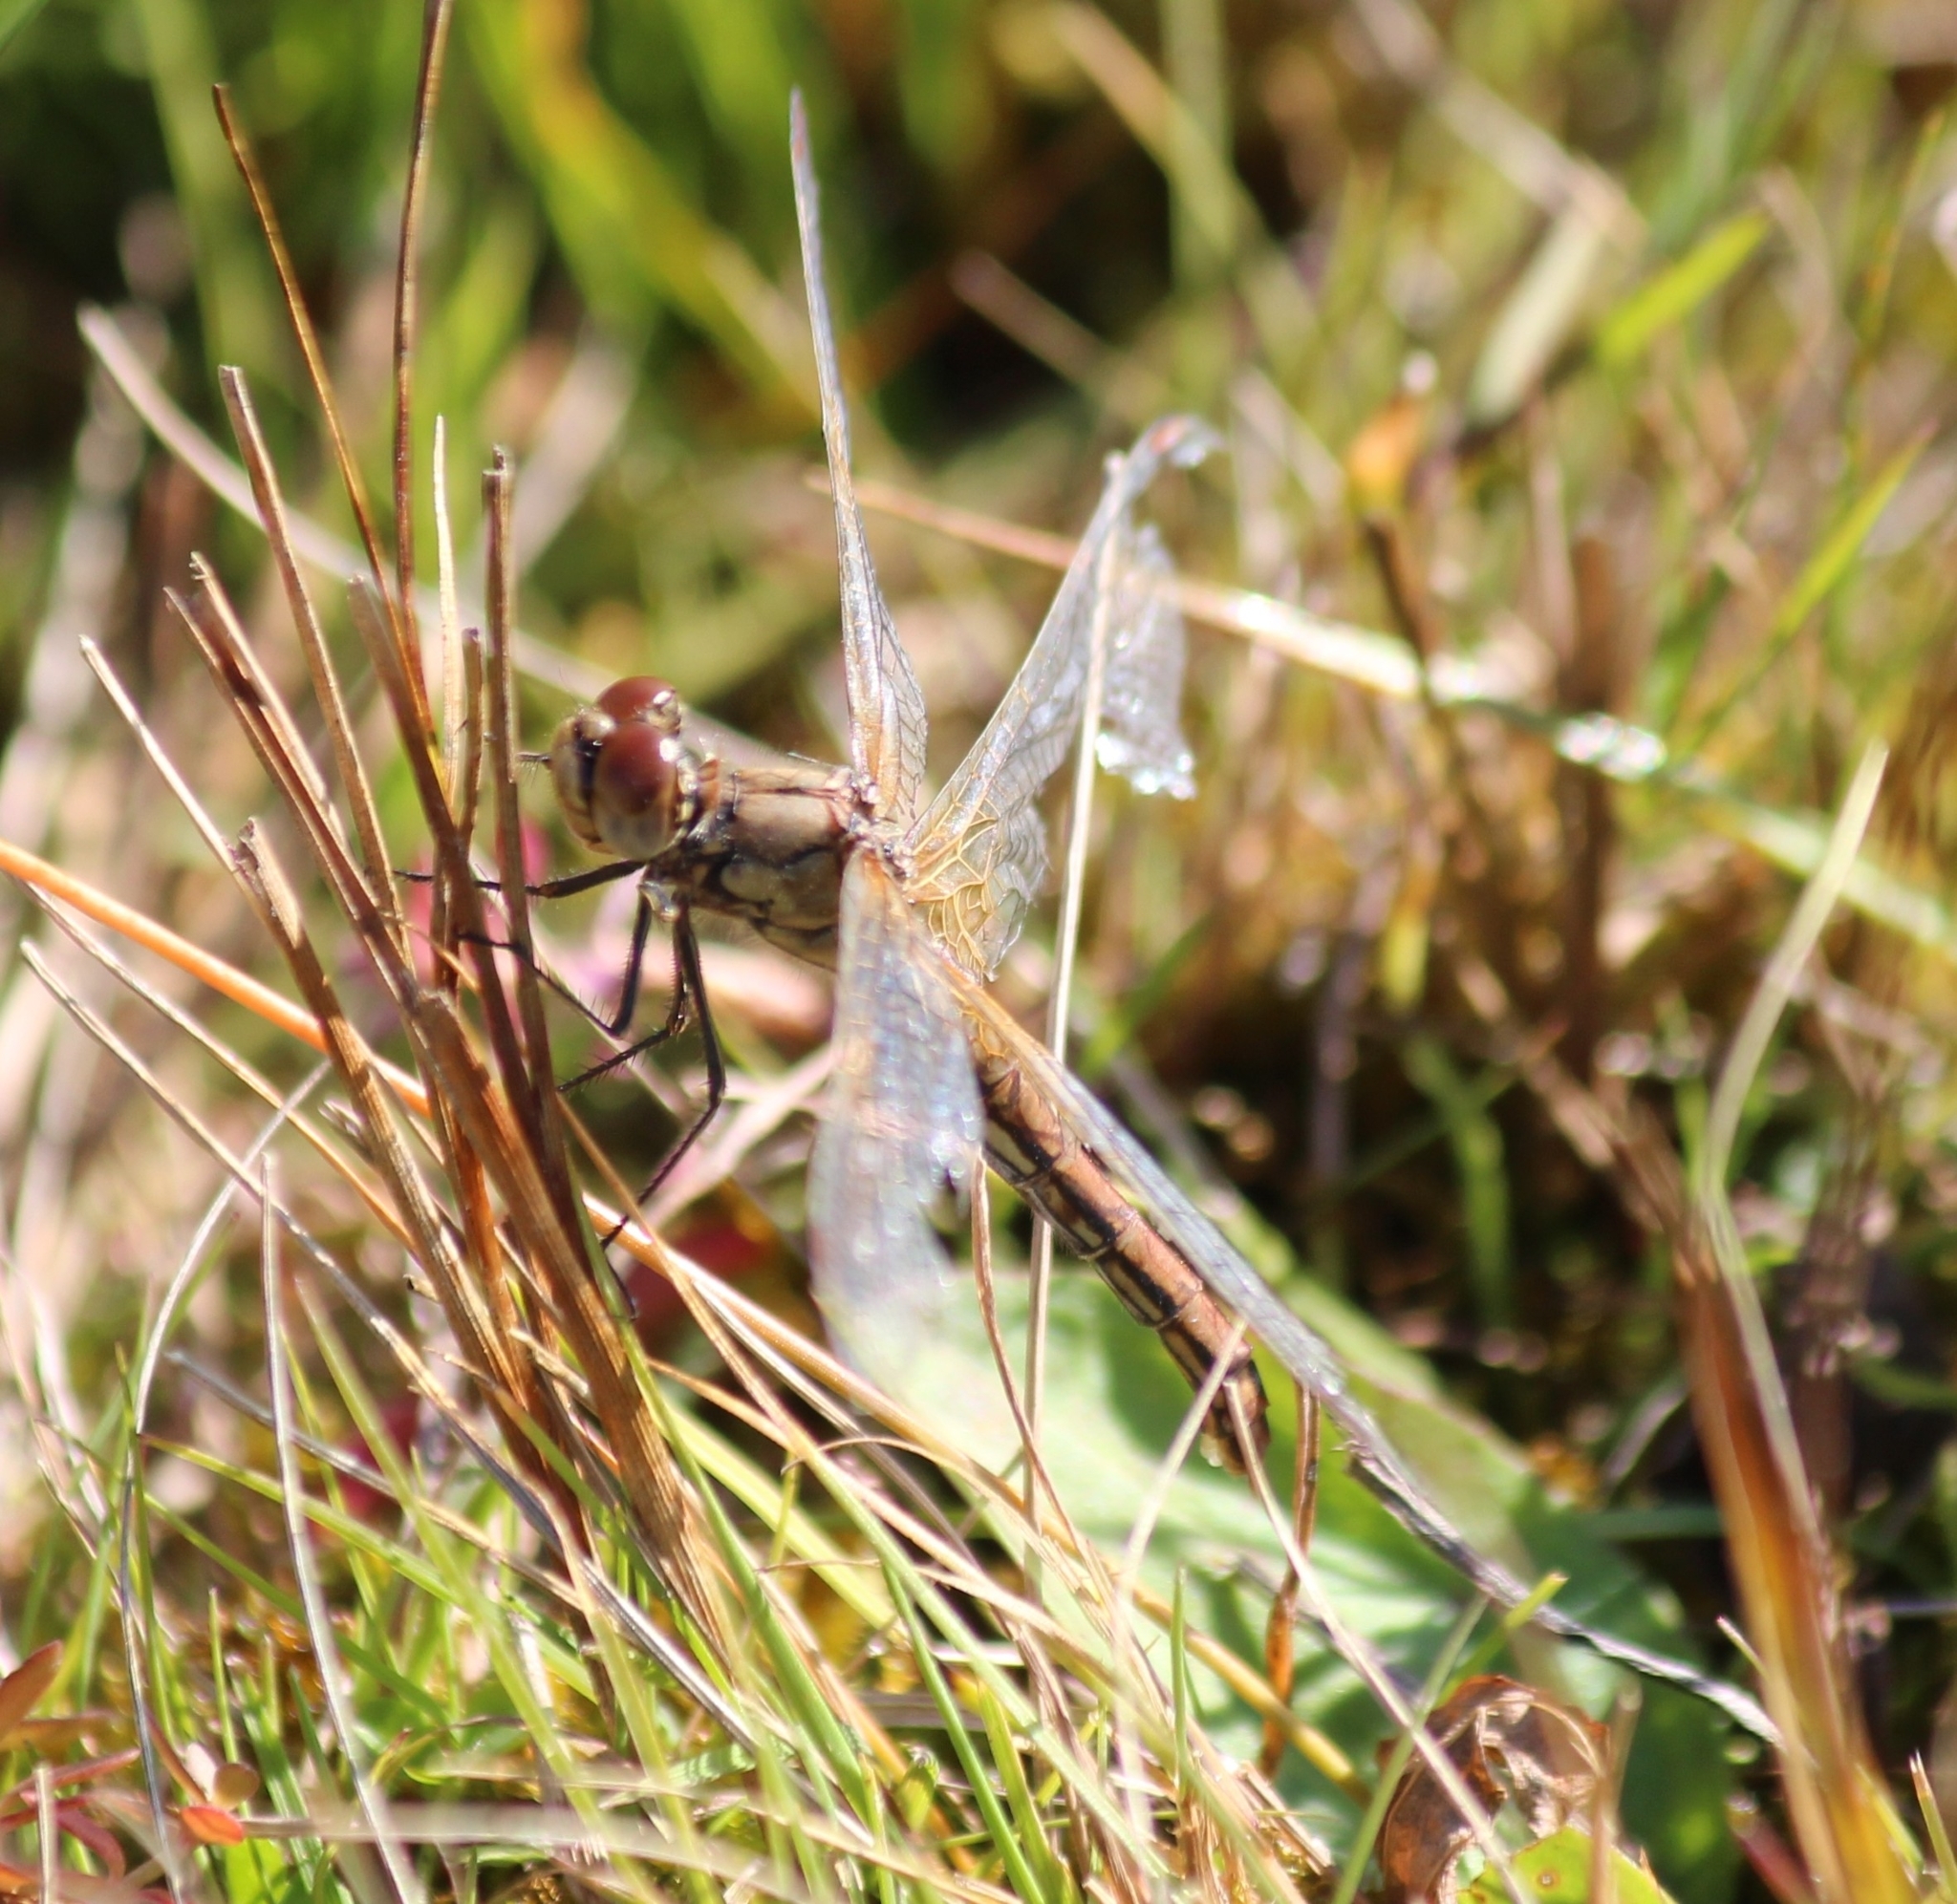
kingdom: Animalia
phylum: Arthropoda
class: Insecta
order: Odonata
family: Libellulidae
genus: Sympetrum
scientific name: Sympetrum flaveolum
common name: Yellow-winged darter
